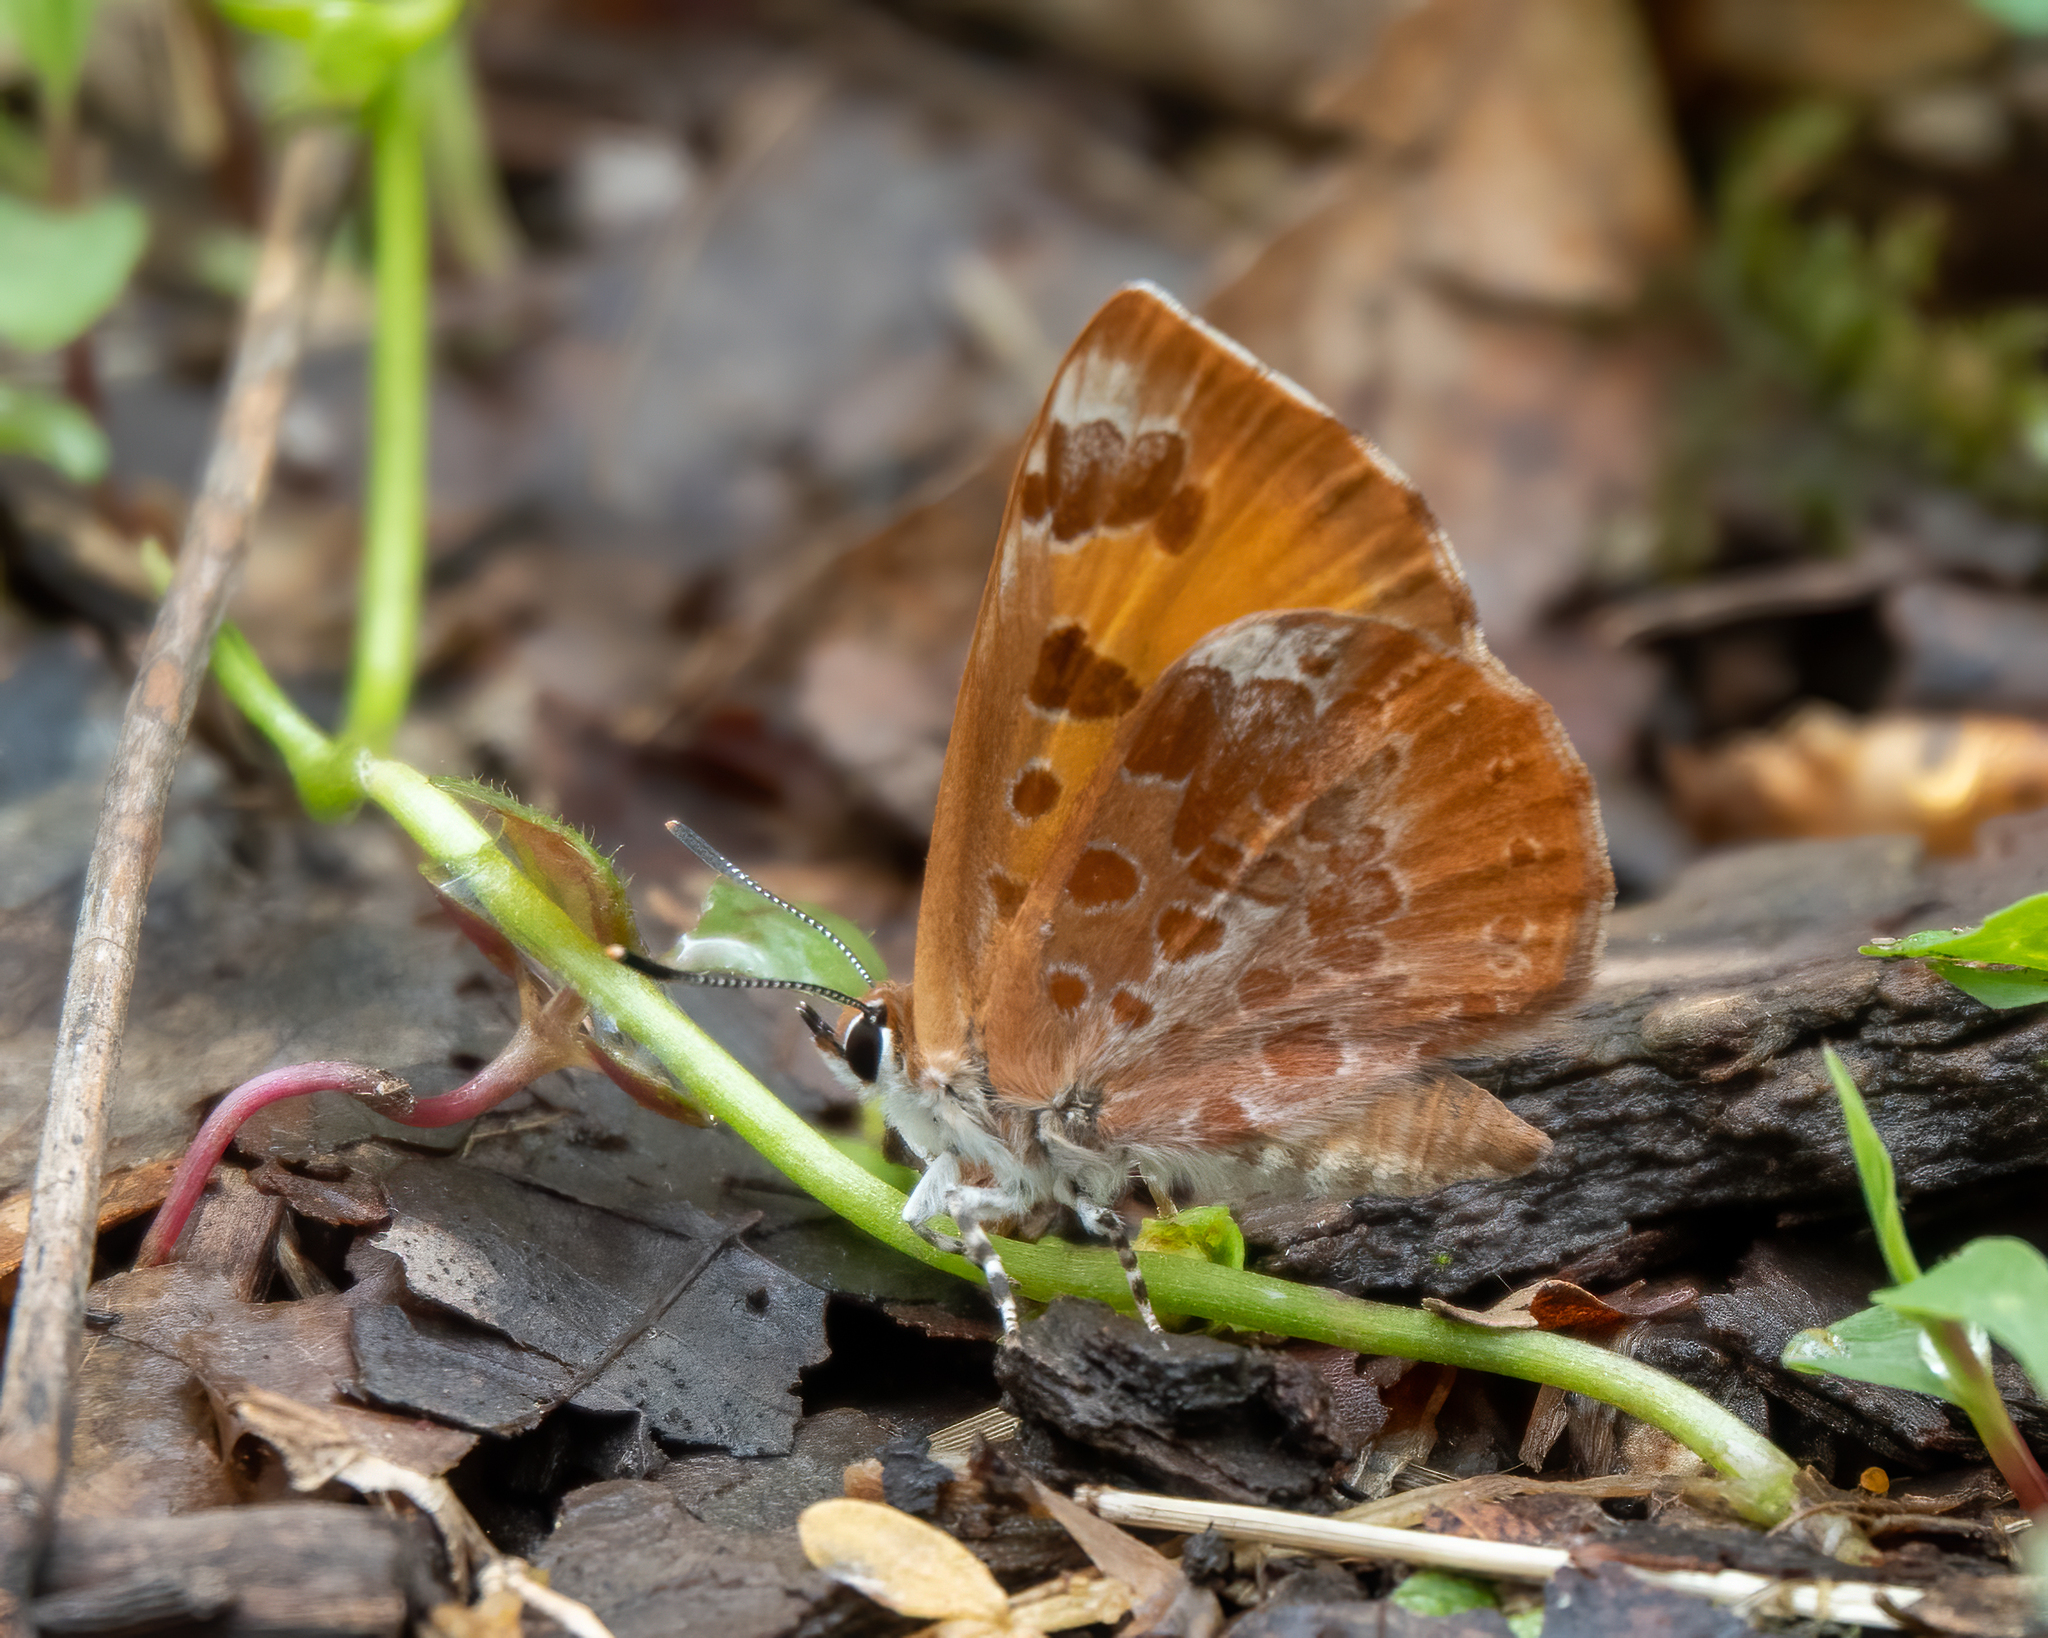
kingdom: Animalia
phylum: Arthropoda
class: Insecta
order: Lepidoptera
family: Lycaenidae
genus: Feniseca
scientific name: Feniseca tarquinius
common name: Harvester
